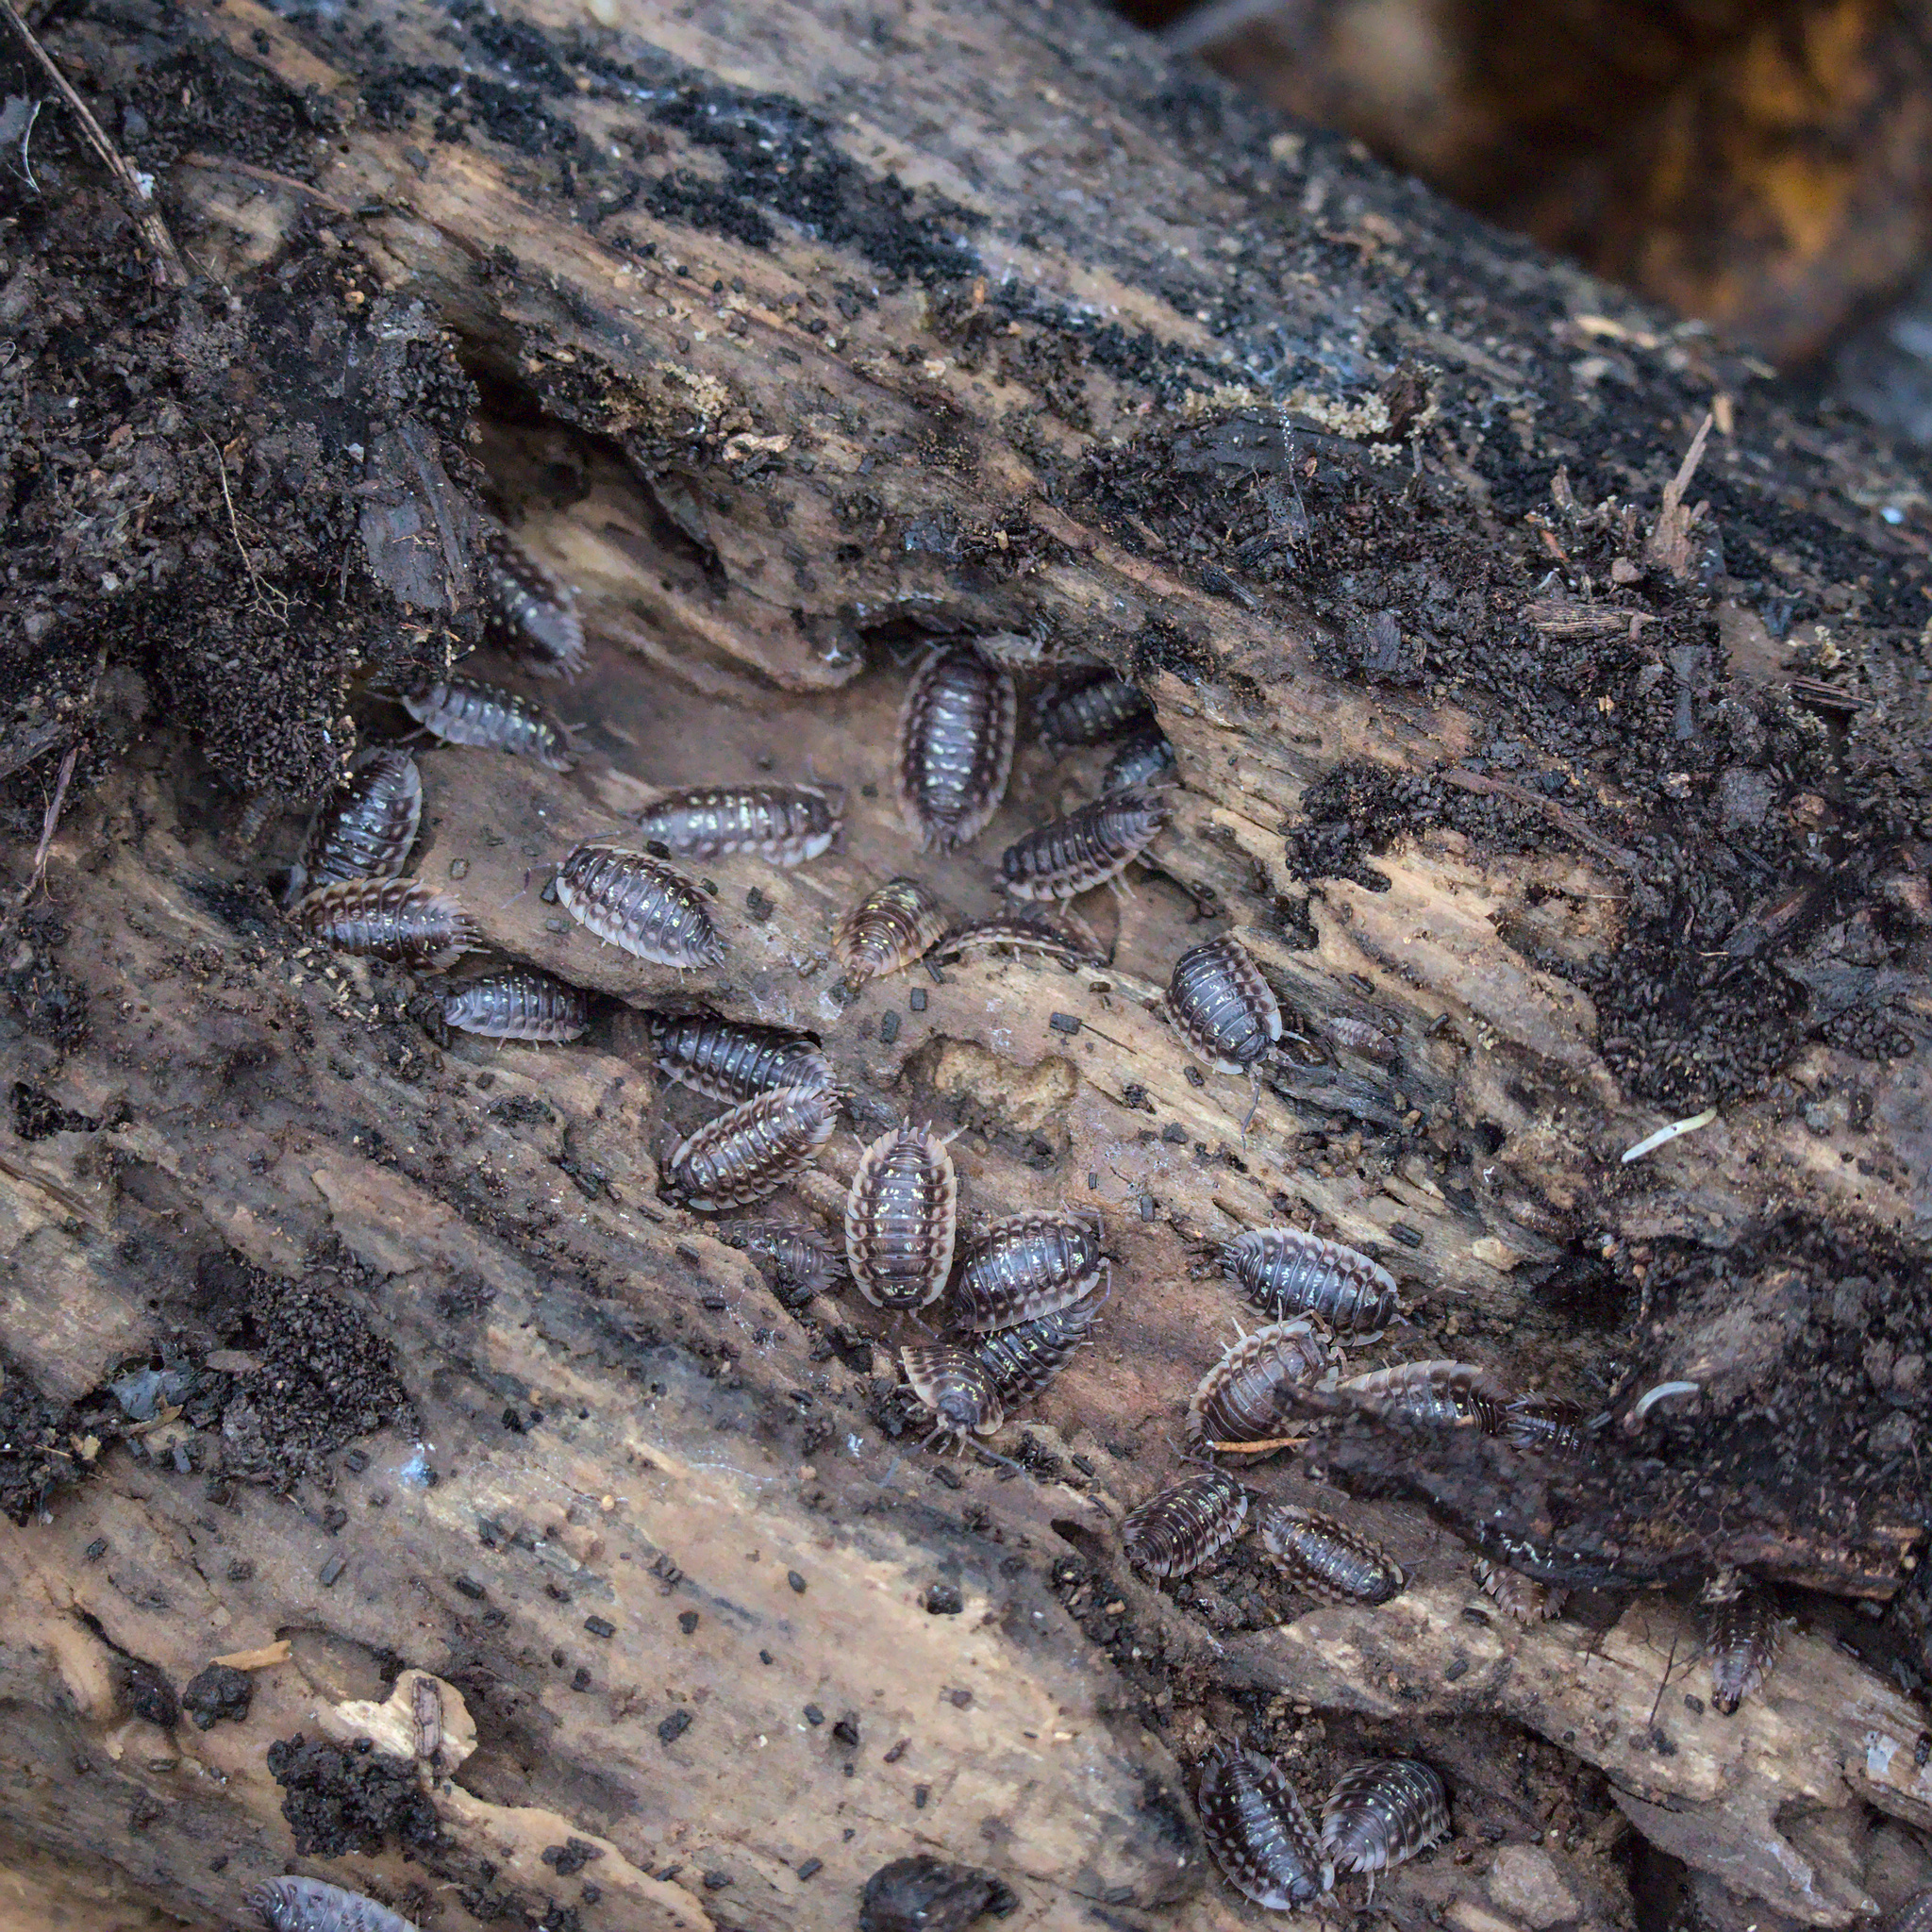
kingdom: Animalia
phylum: Arthropoda
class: Malacostraca
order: Isopoda
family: Oniscidae
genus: Oniscus
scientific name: Oniscus asellus
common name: Common shiny woodlouse
